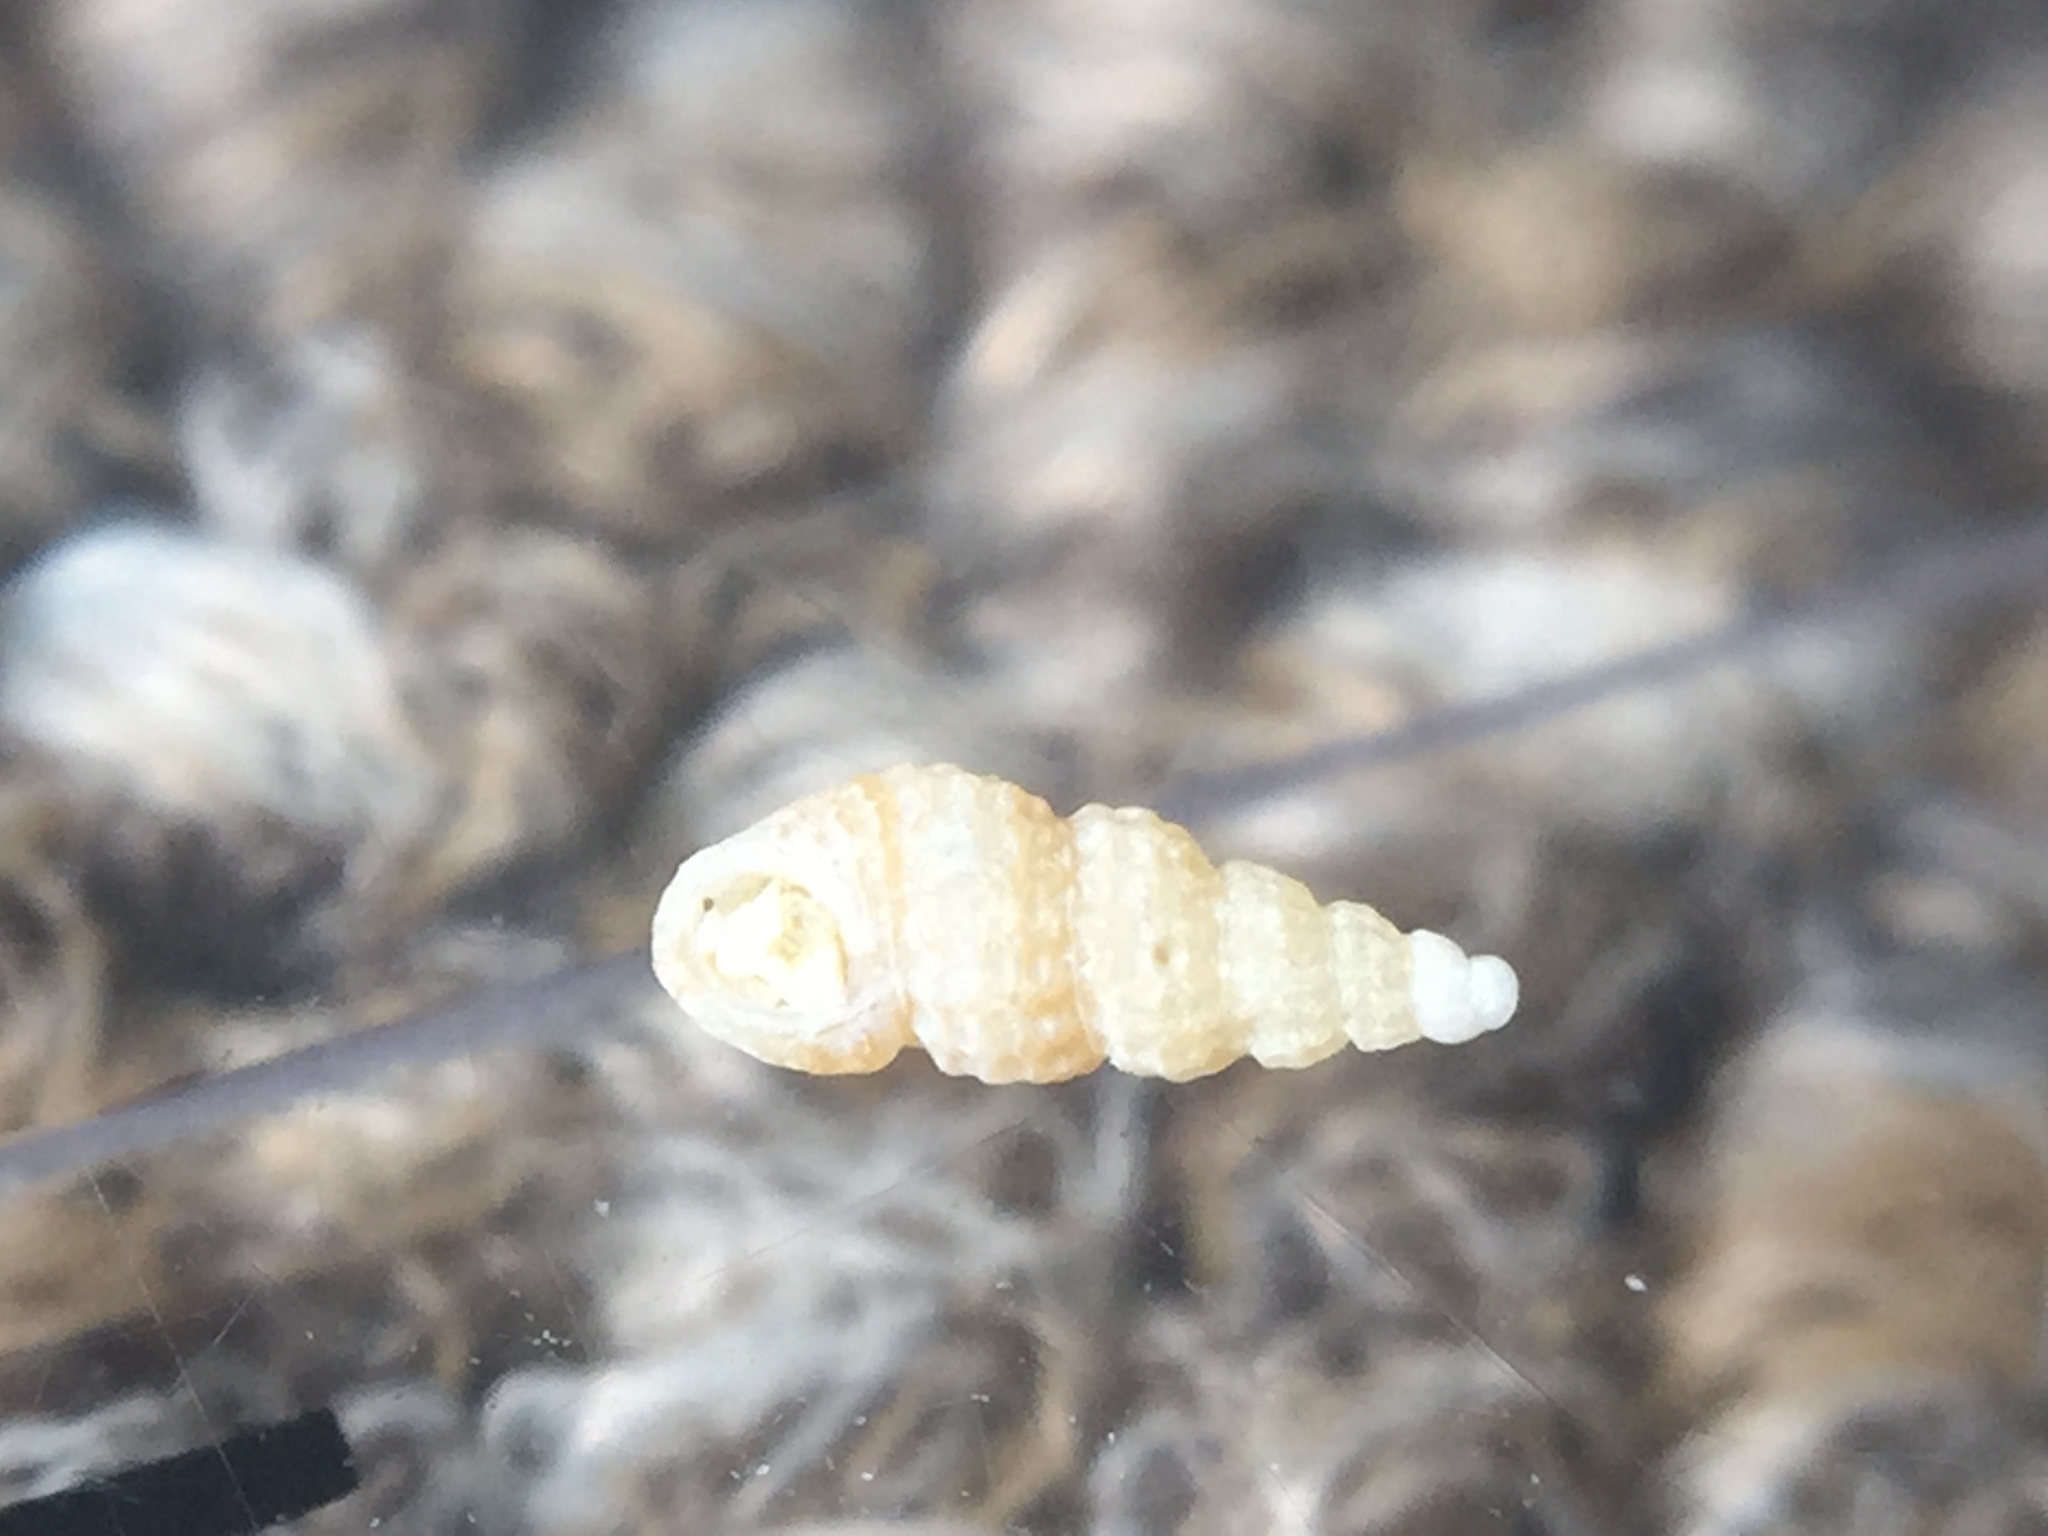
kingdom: Animalia
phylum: Mollusca
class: Gastropoda
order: Littorinimorpha
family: Lironobidae
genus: Merelina
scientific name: Merelina superba
